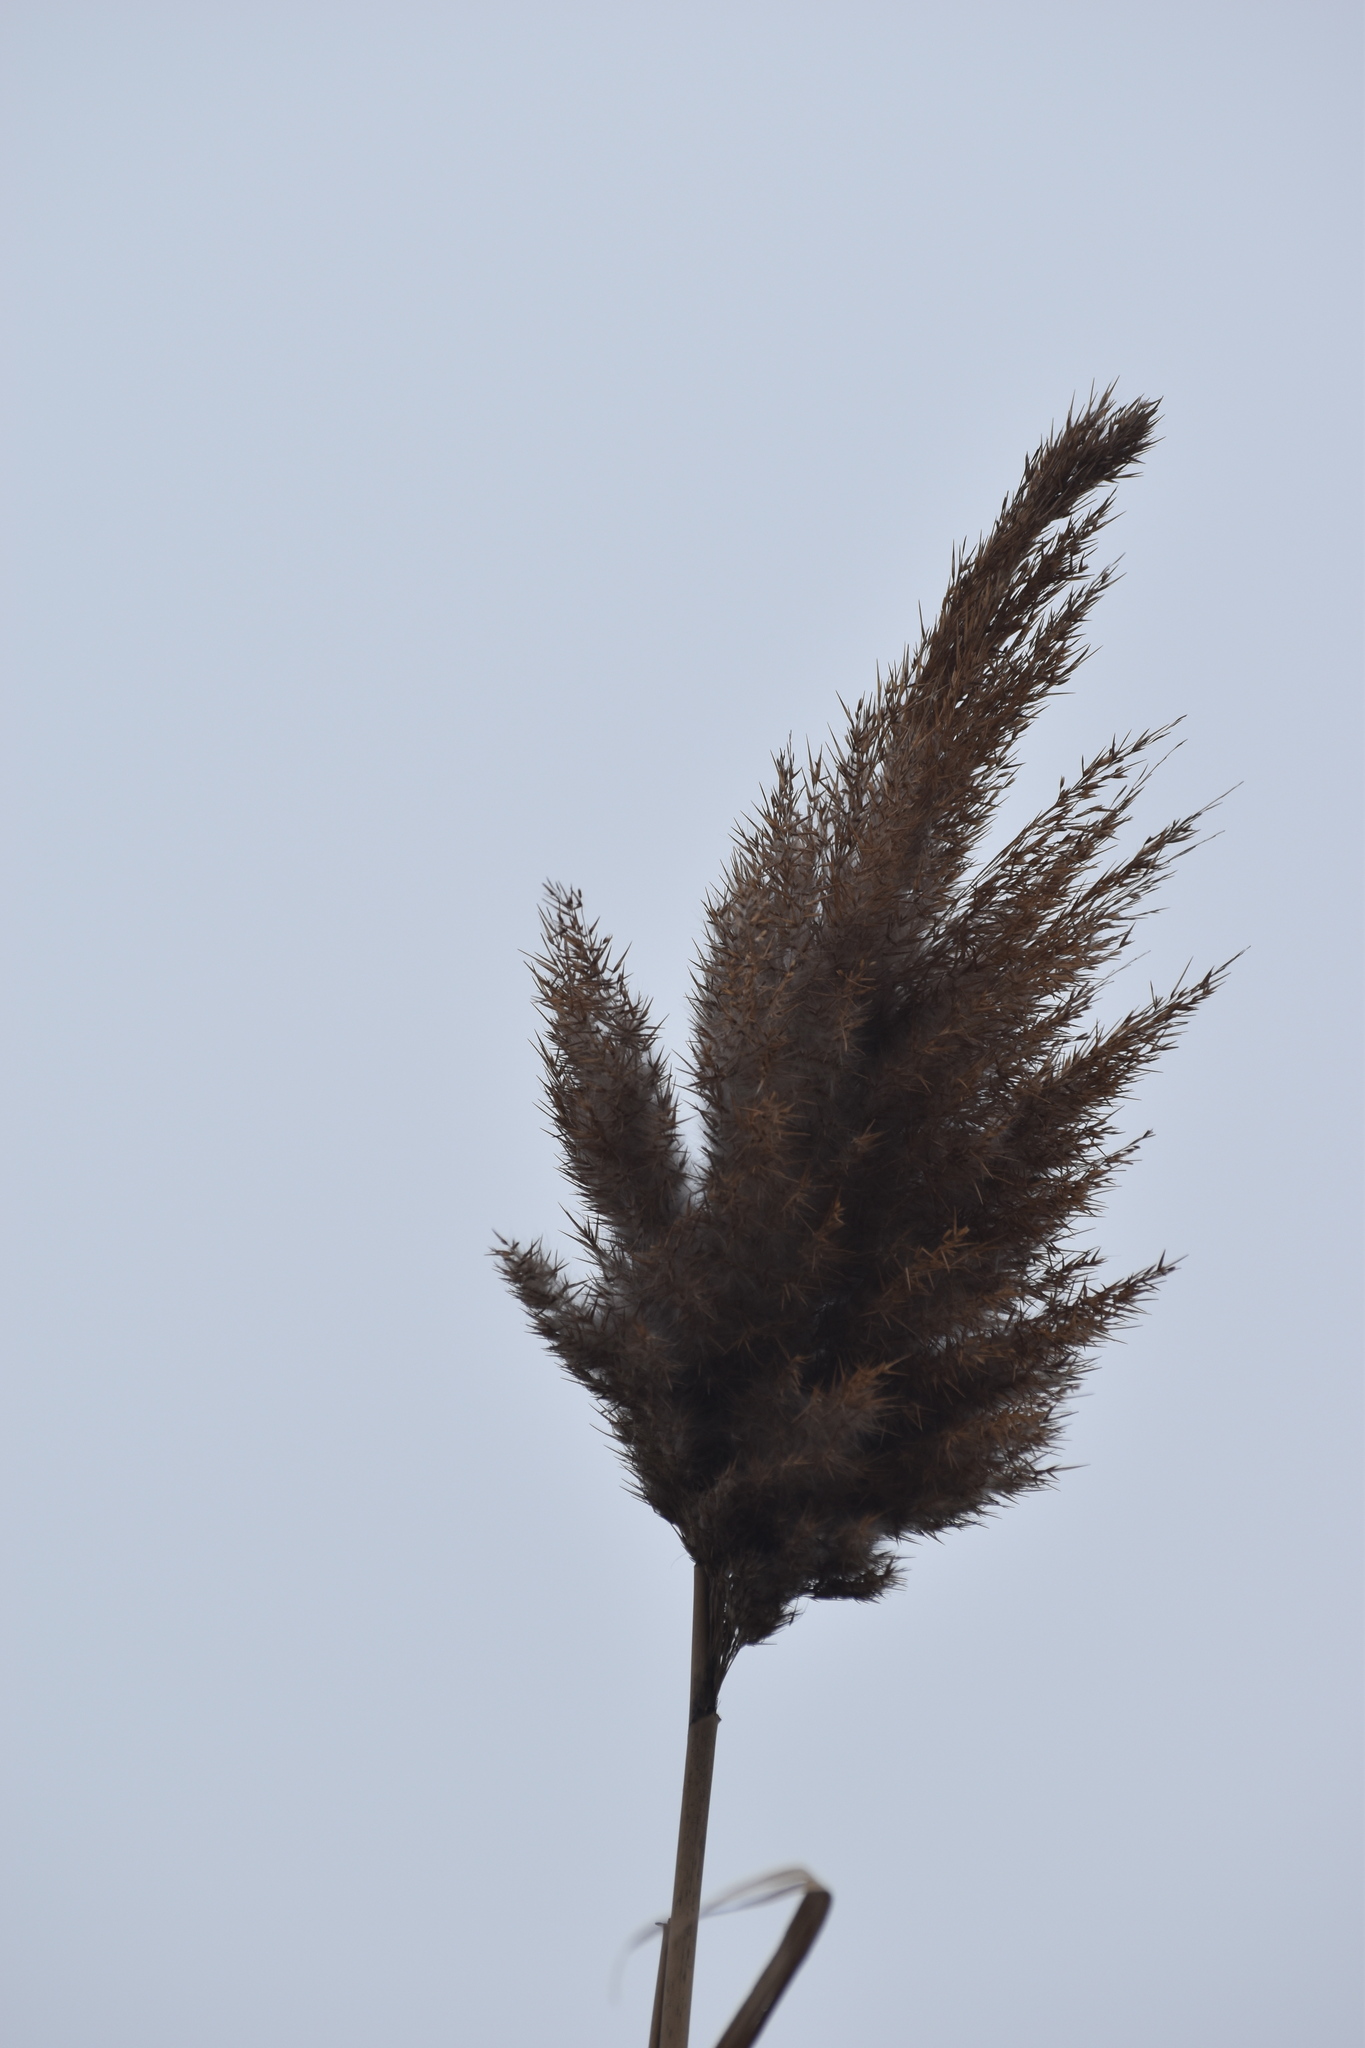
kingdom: Plantae
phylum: Tracheophyta
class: Liliopsida
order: Poales
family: Poaceae
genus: Phragmites
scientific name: Phragmites australis
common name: Common reed
